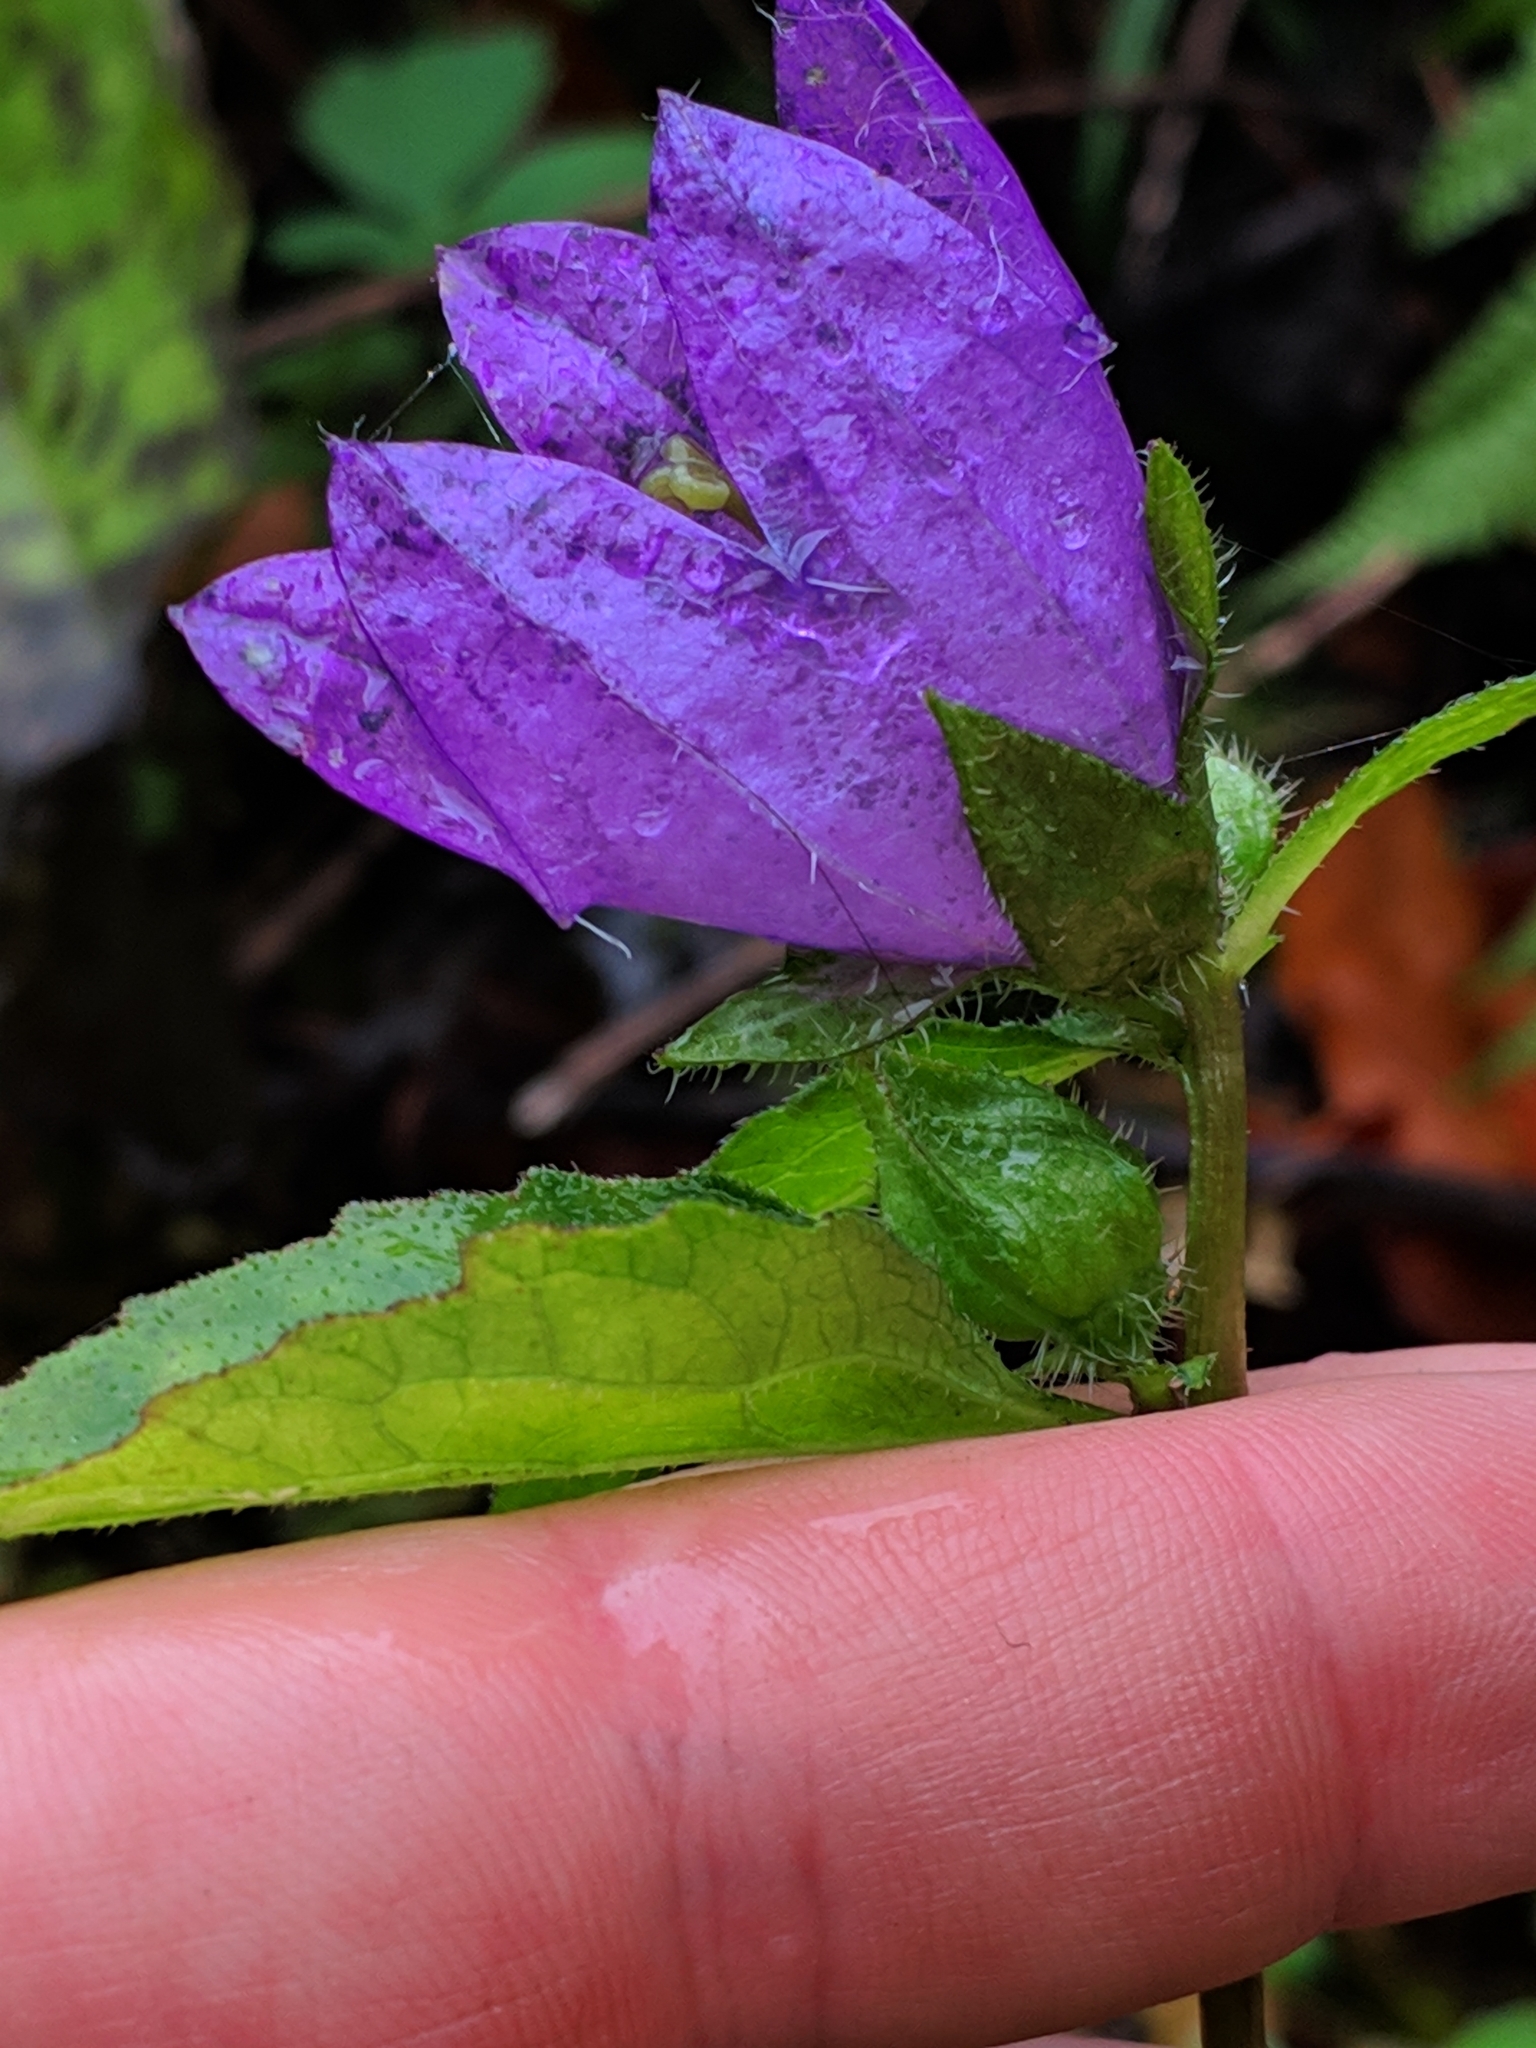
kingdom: Plantae
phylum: Tracheophyta
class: Magnoliopsida
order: Asterales
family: Campanulaceae
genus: Campanula
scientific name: Campanula trachelium
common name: Nettle-leaved bellflower
